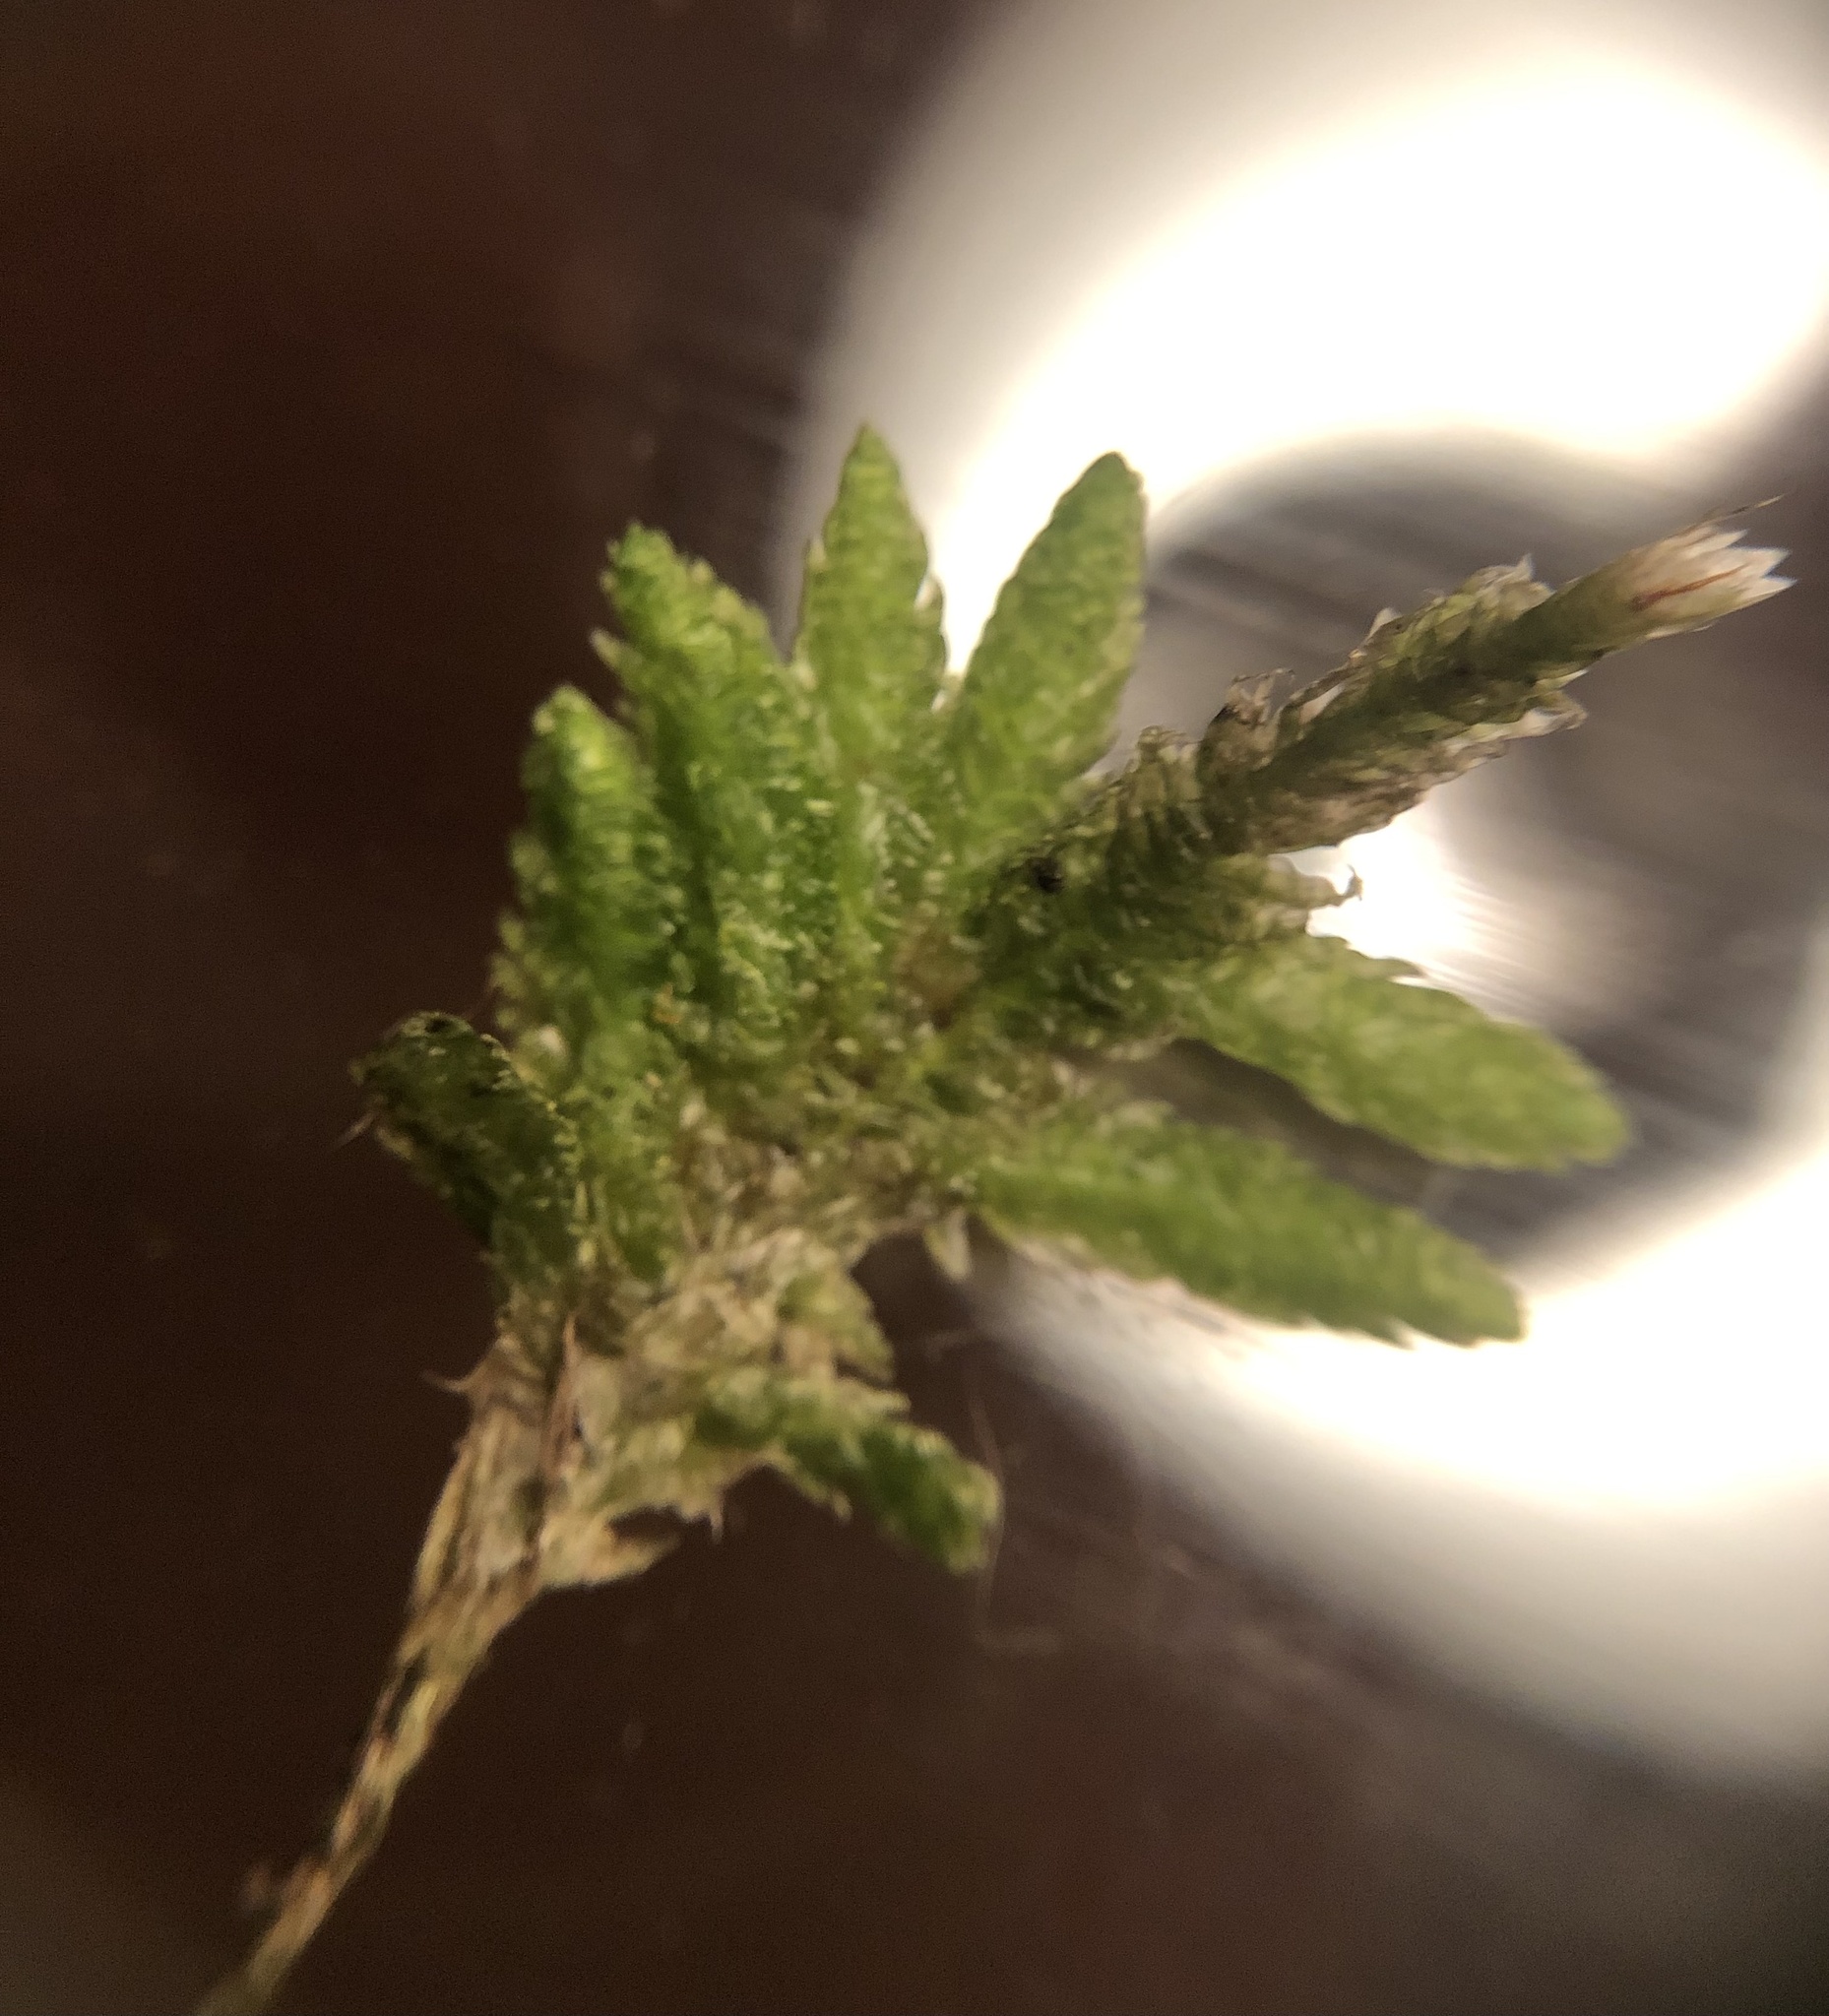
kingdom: Plantae
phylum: Bryophyta
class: Bryopsida
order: Hypnales
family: Plagiotheciaceae
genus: Plagiothecium
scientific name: Plagiothecium undulatum
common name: Waved silk-moss
